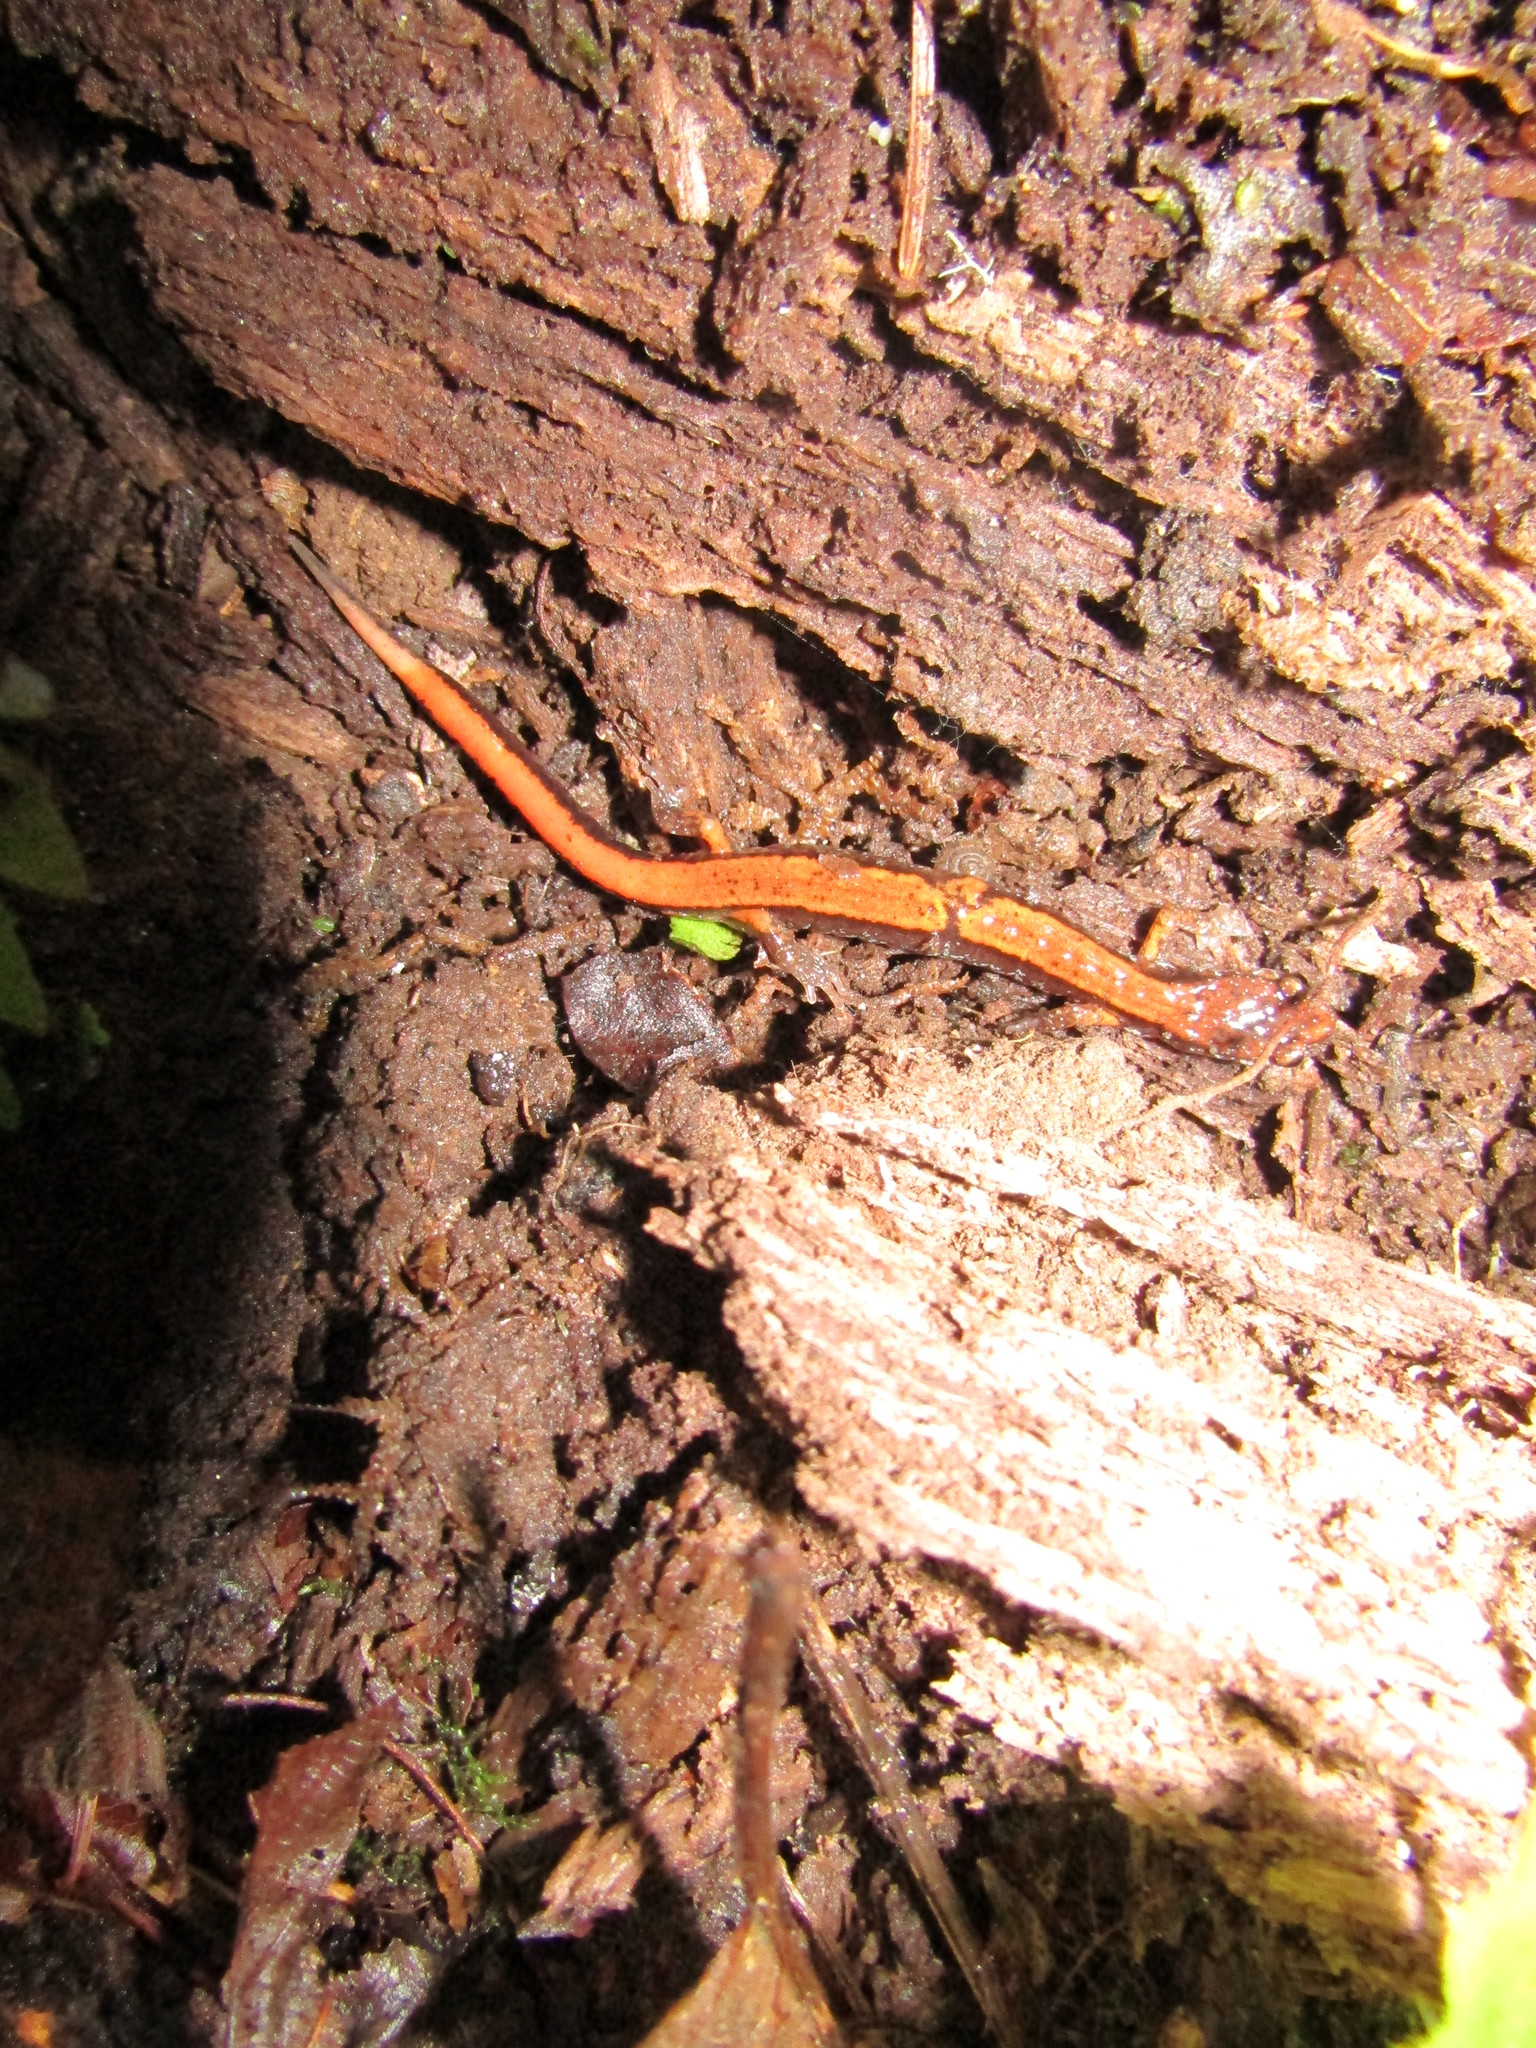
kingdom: Animalia
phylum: Chordata
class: Amphibia
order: Caudata
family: Plethodontidae
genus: Plethodon
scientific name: Plethodon vehiculum
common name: Western red-backed salamander
